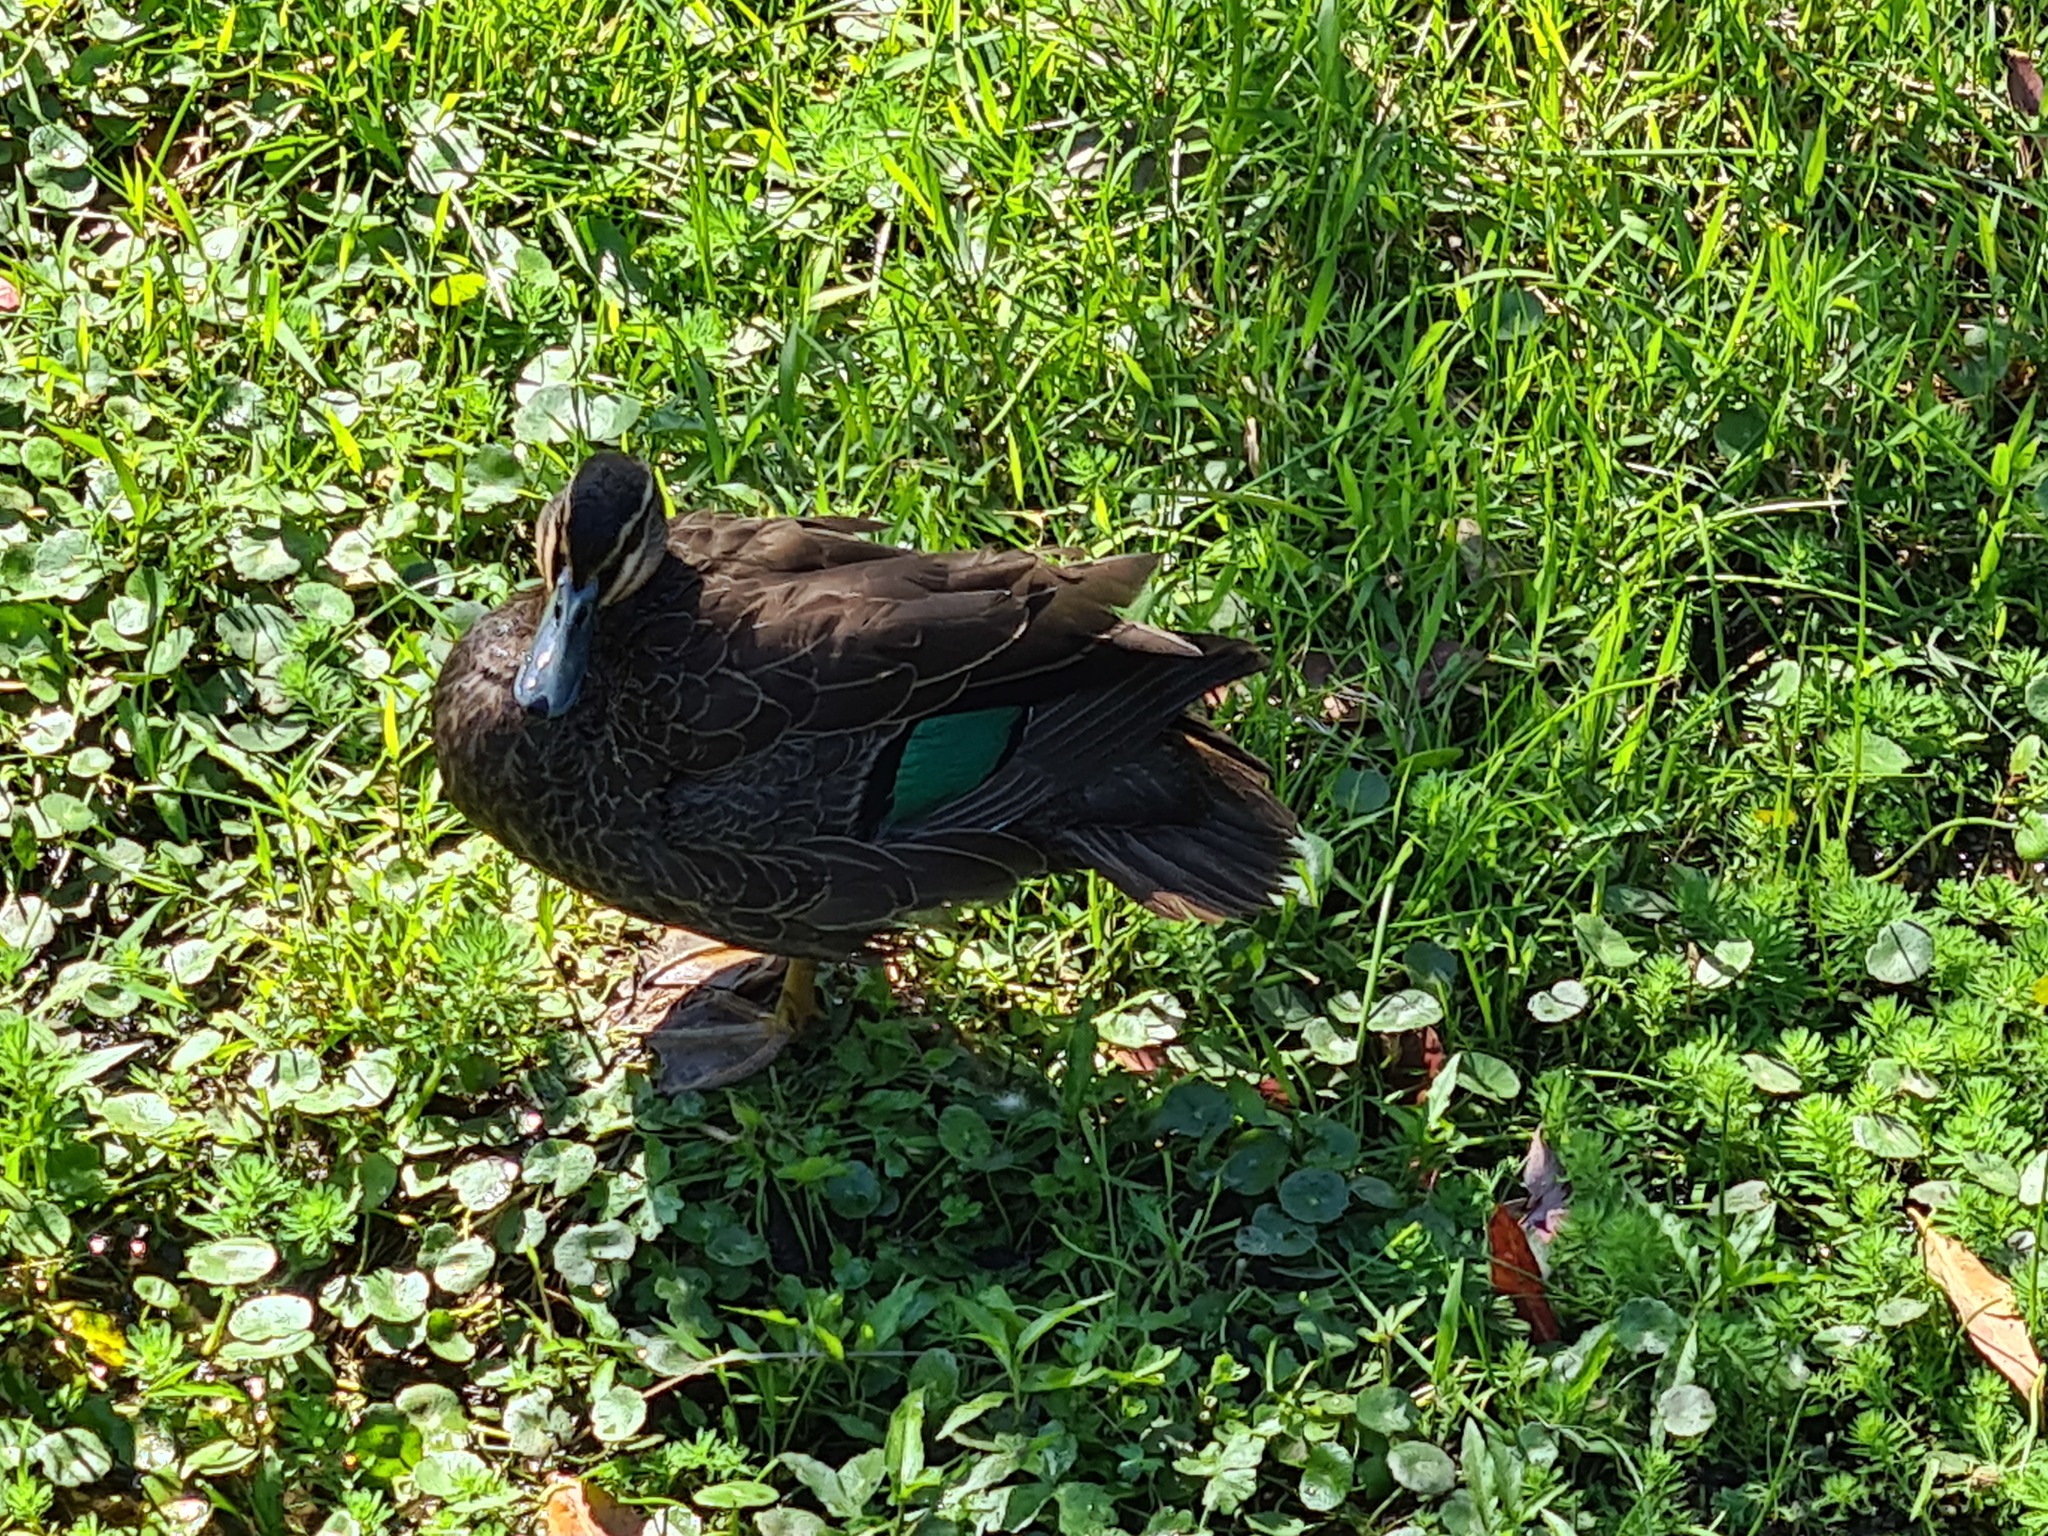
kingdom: Animalia
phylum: Chordata
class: Aves
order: Anseriformes
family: Anatidae
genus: Anas
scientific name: Anas superciliosa
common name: Pacific black duck
